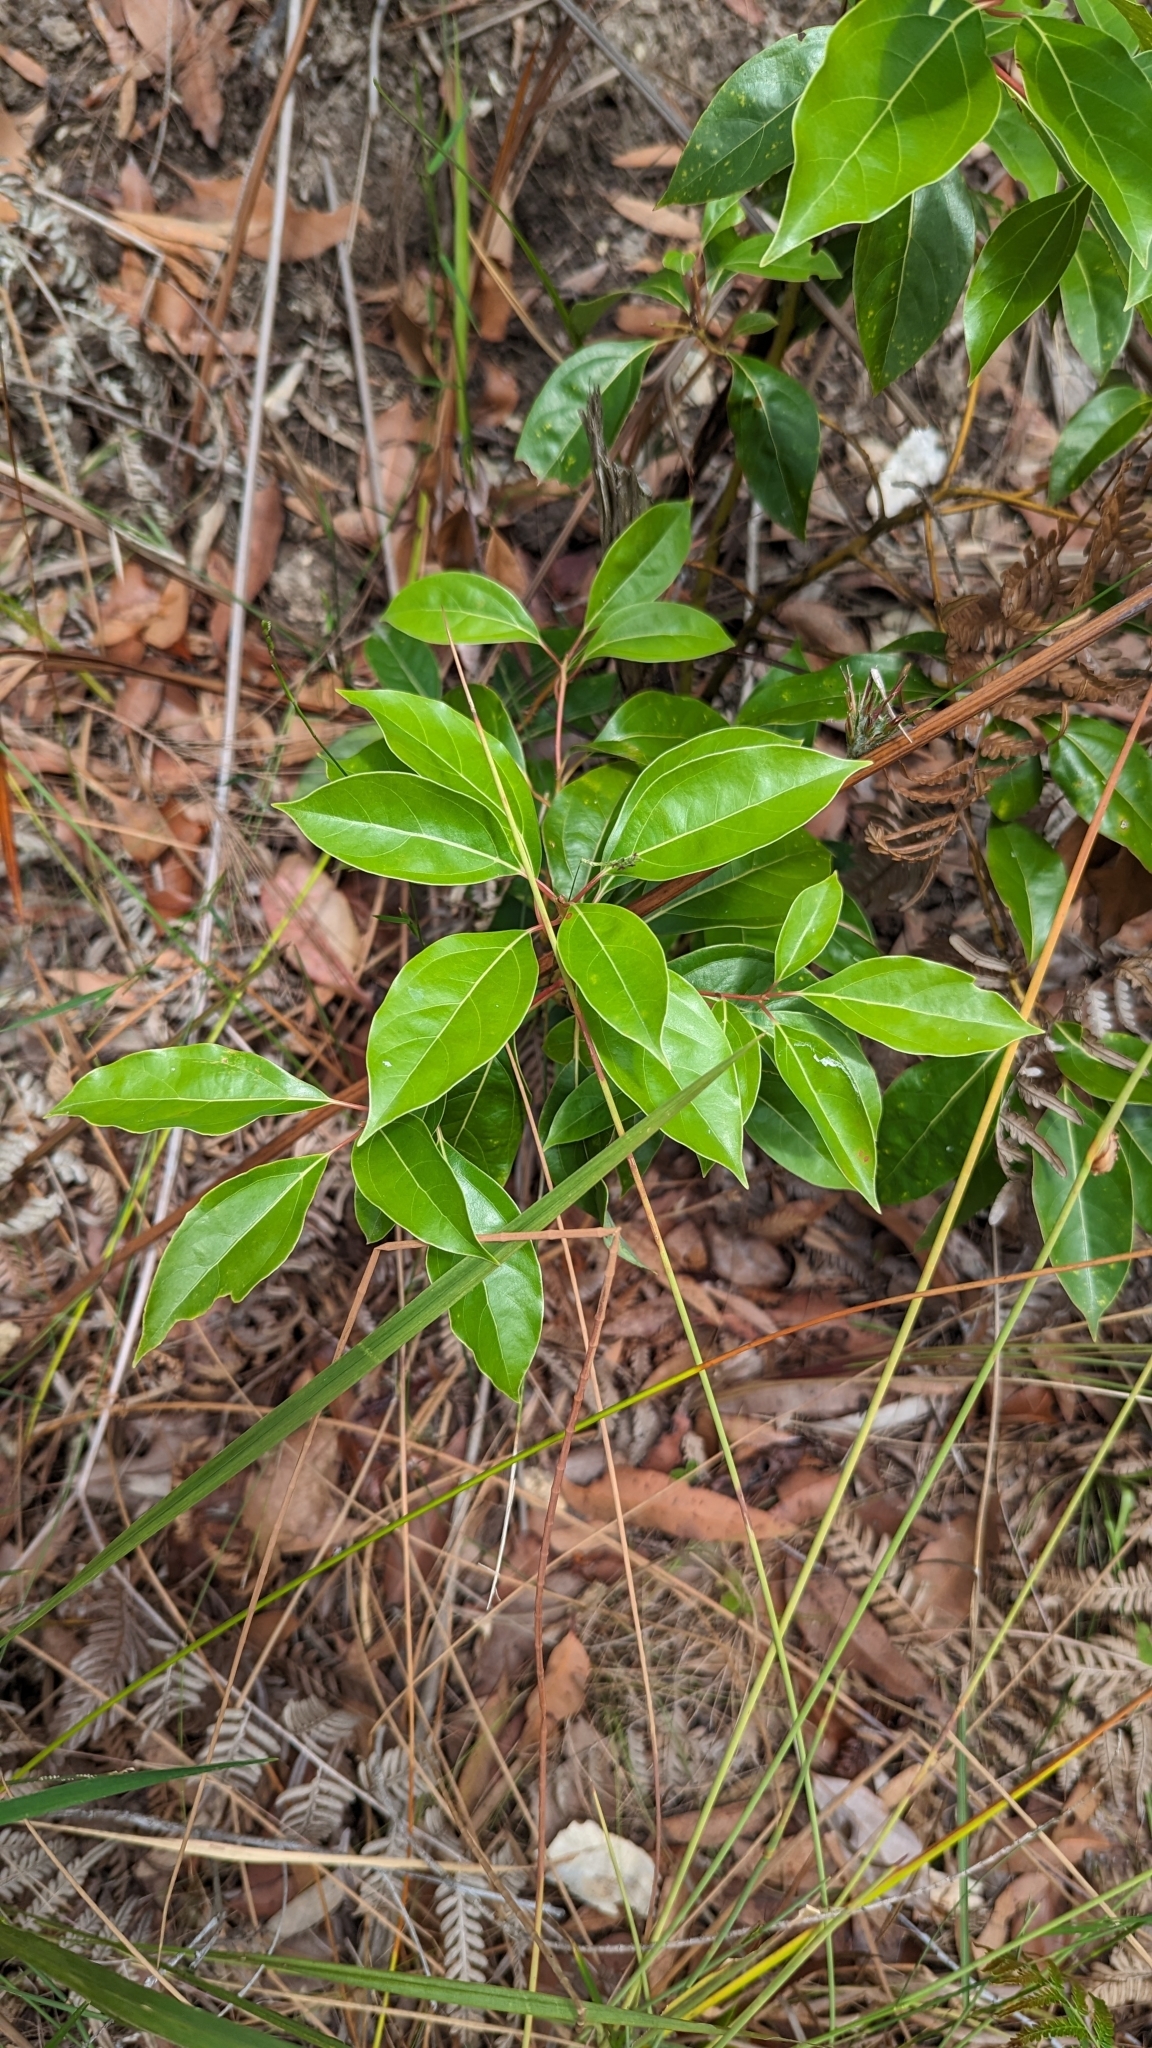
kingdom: Plantae
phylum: Tracheophyta
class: Magnoliopsida
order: Laurales
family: Lauraceae
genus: Cinnamomum
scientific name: Cinnamomum camphora
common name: Camphortree
